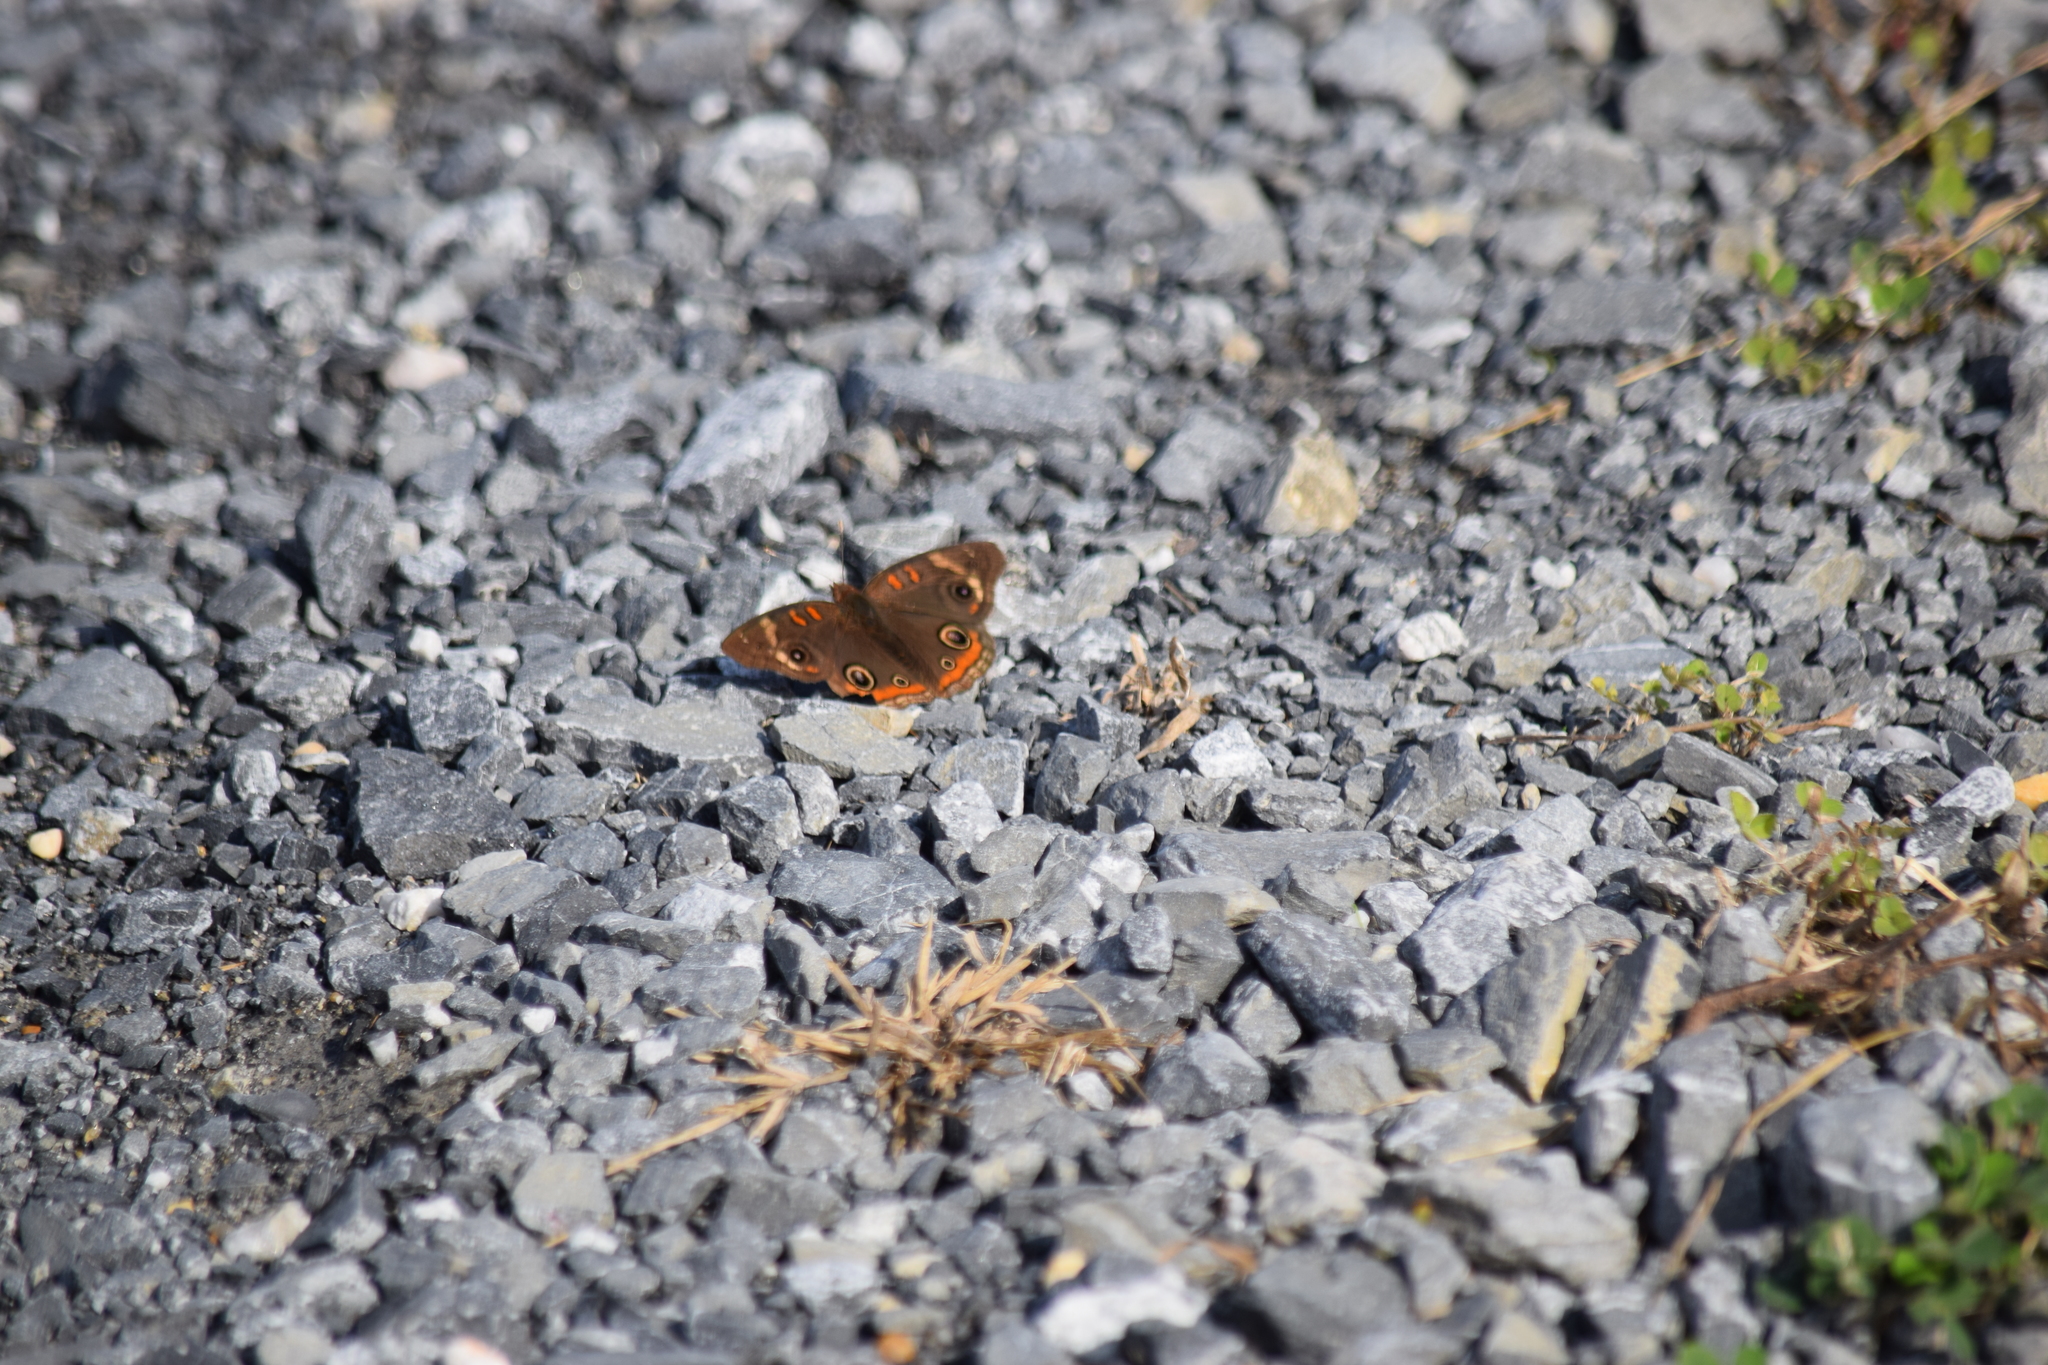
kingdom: Animalia
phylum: Arthropoda
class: Insecta
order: Lepidoptera
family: Nymphalidae
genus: Junonia
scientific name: Junonia coenia
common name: Common buckeye
